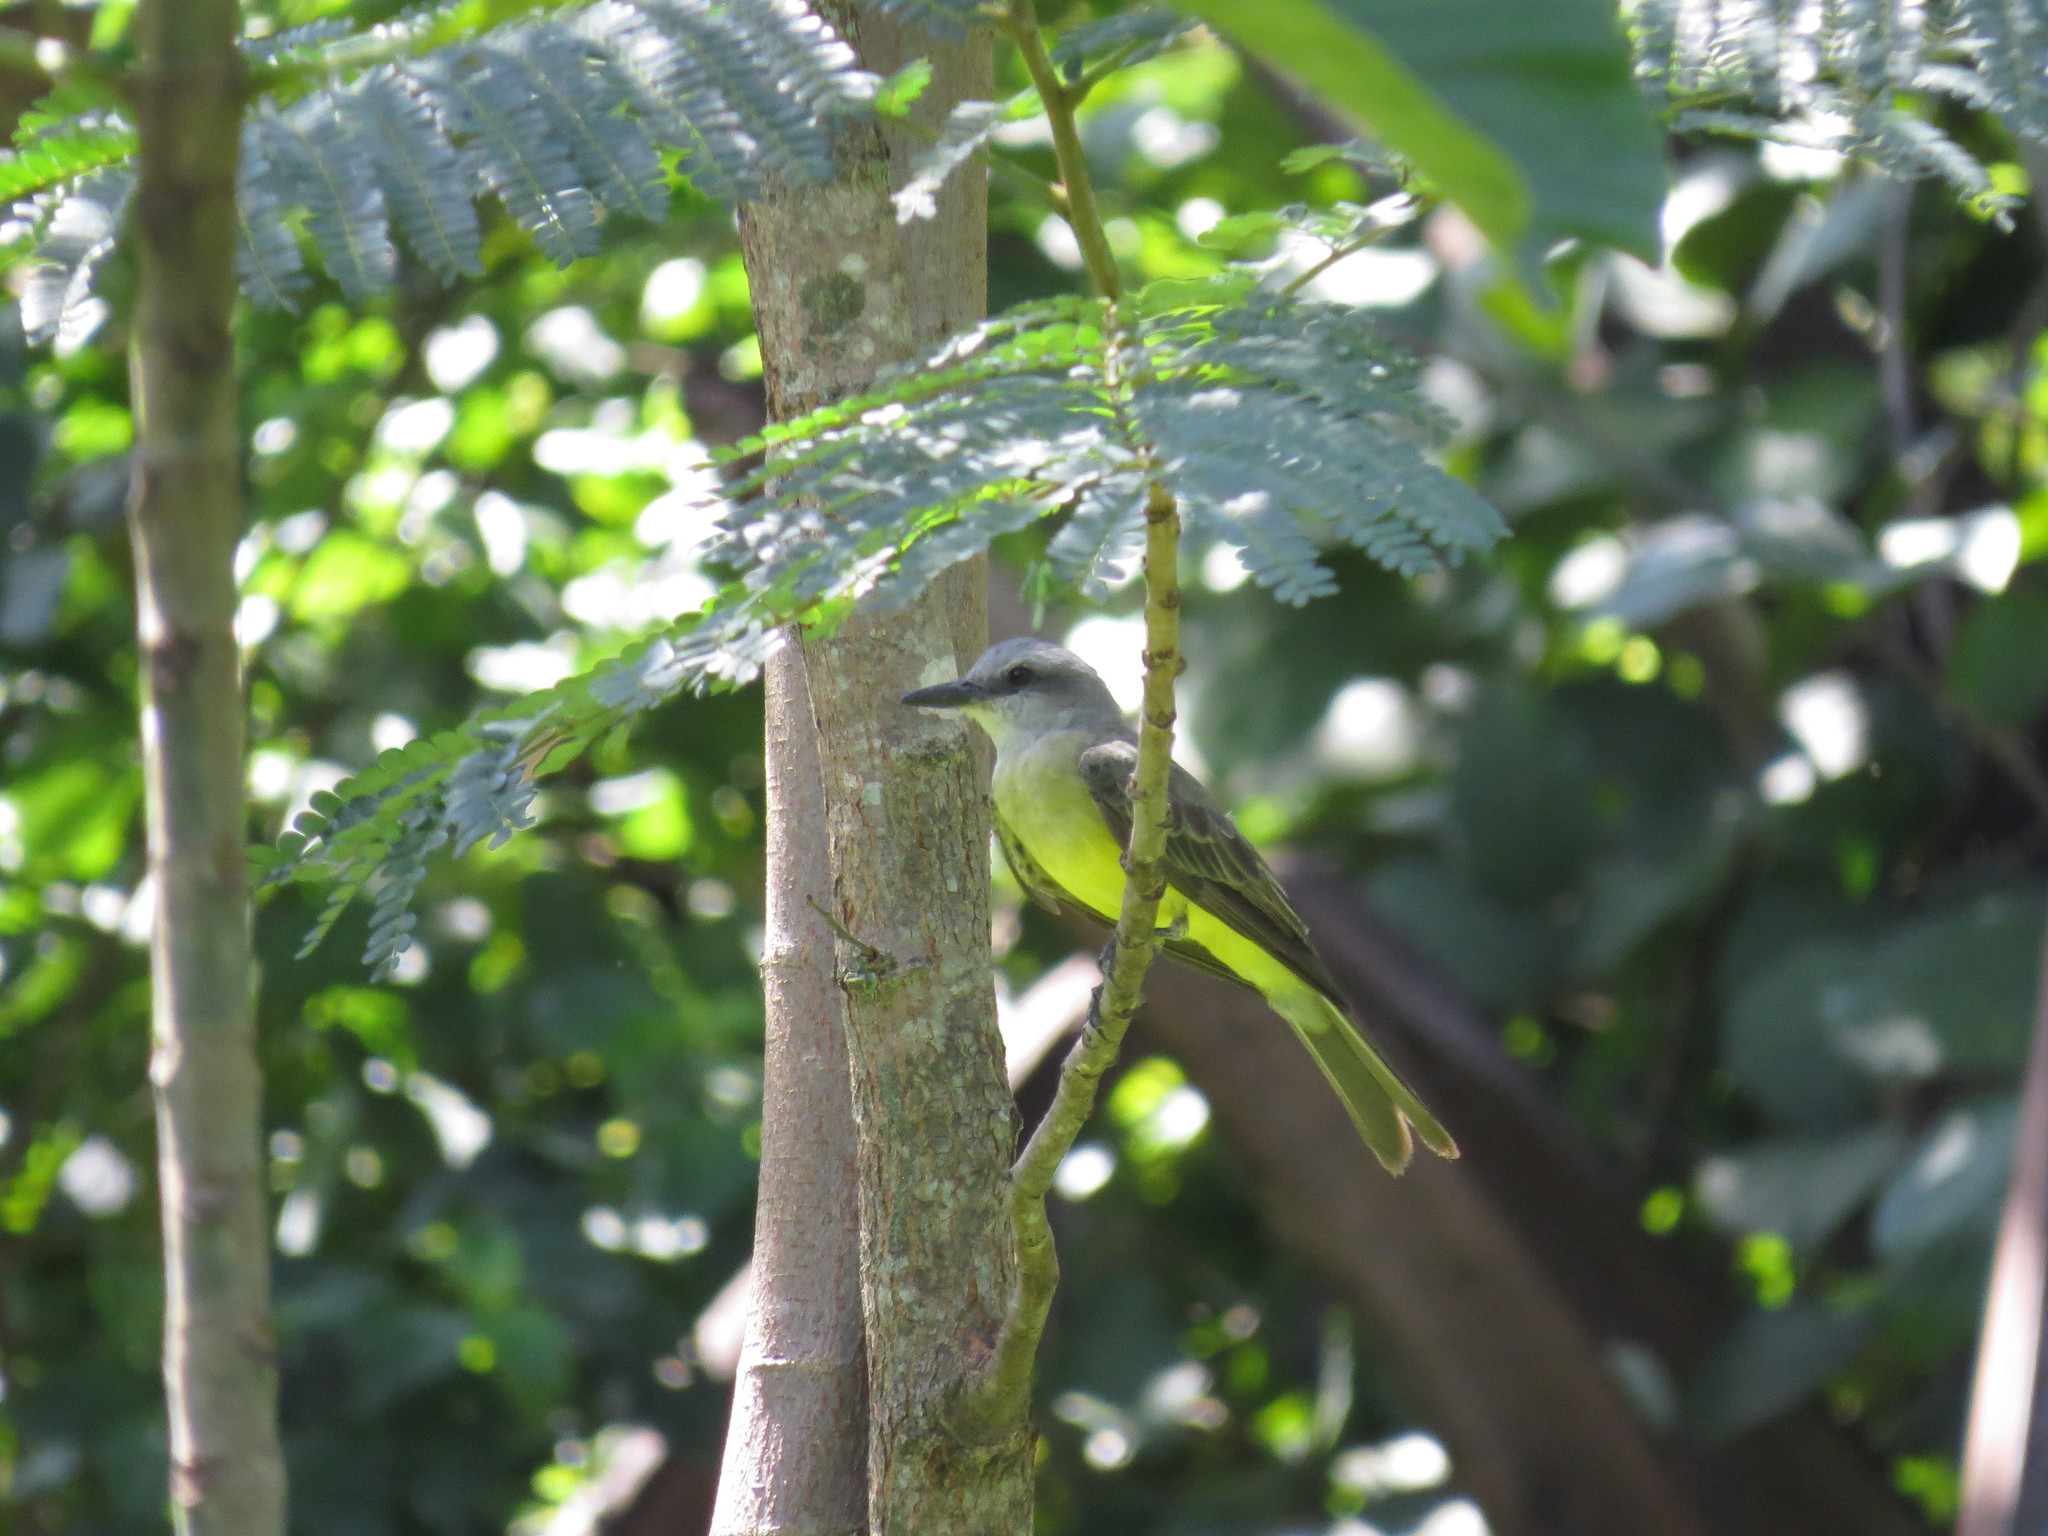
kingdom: Animalia
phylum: Chordata
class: Aves
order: Passeriformes
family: Tyrannidae
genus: Tyrannus
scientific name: Tyrannus melancholicus
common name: Tropical kingbird
